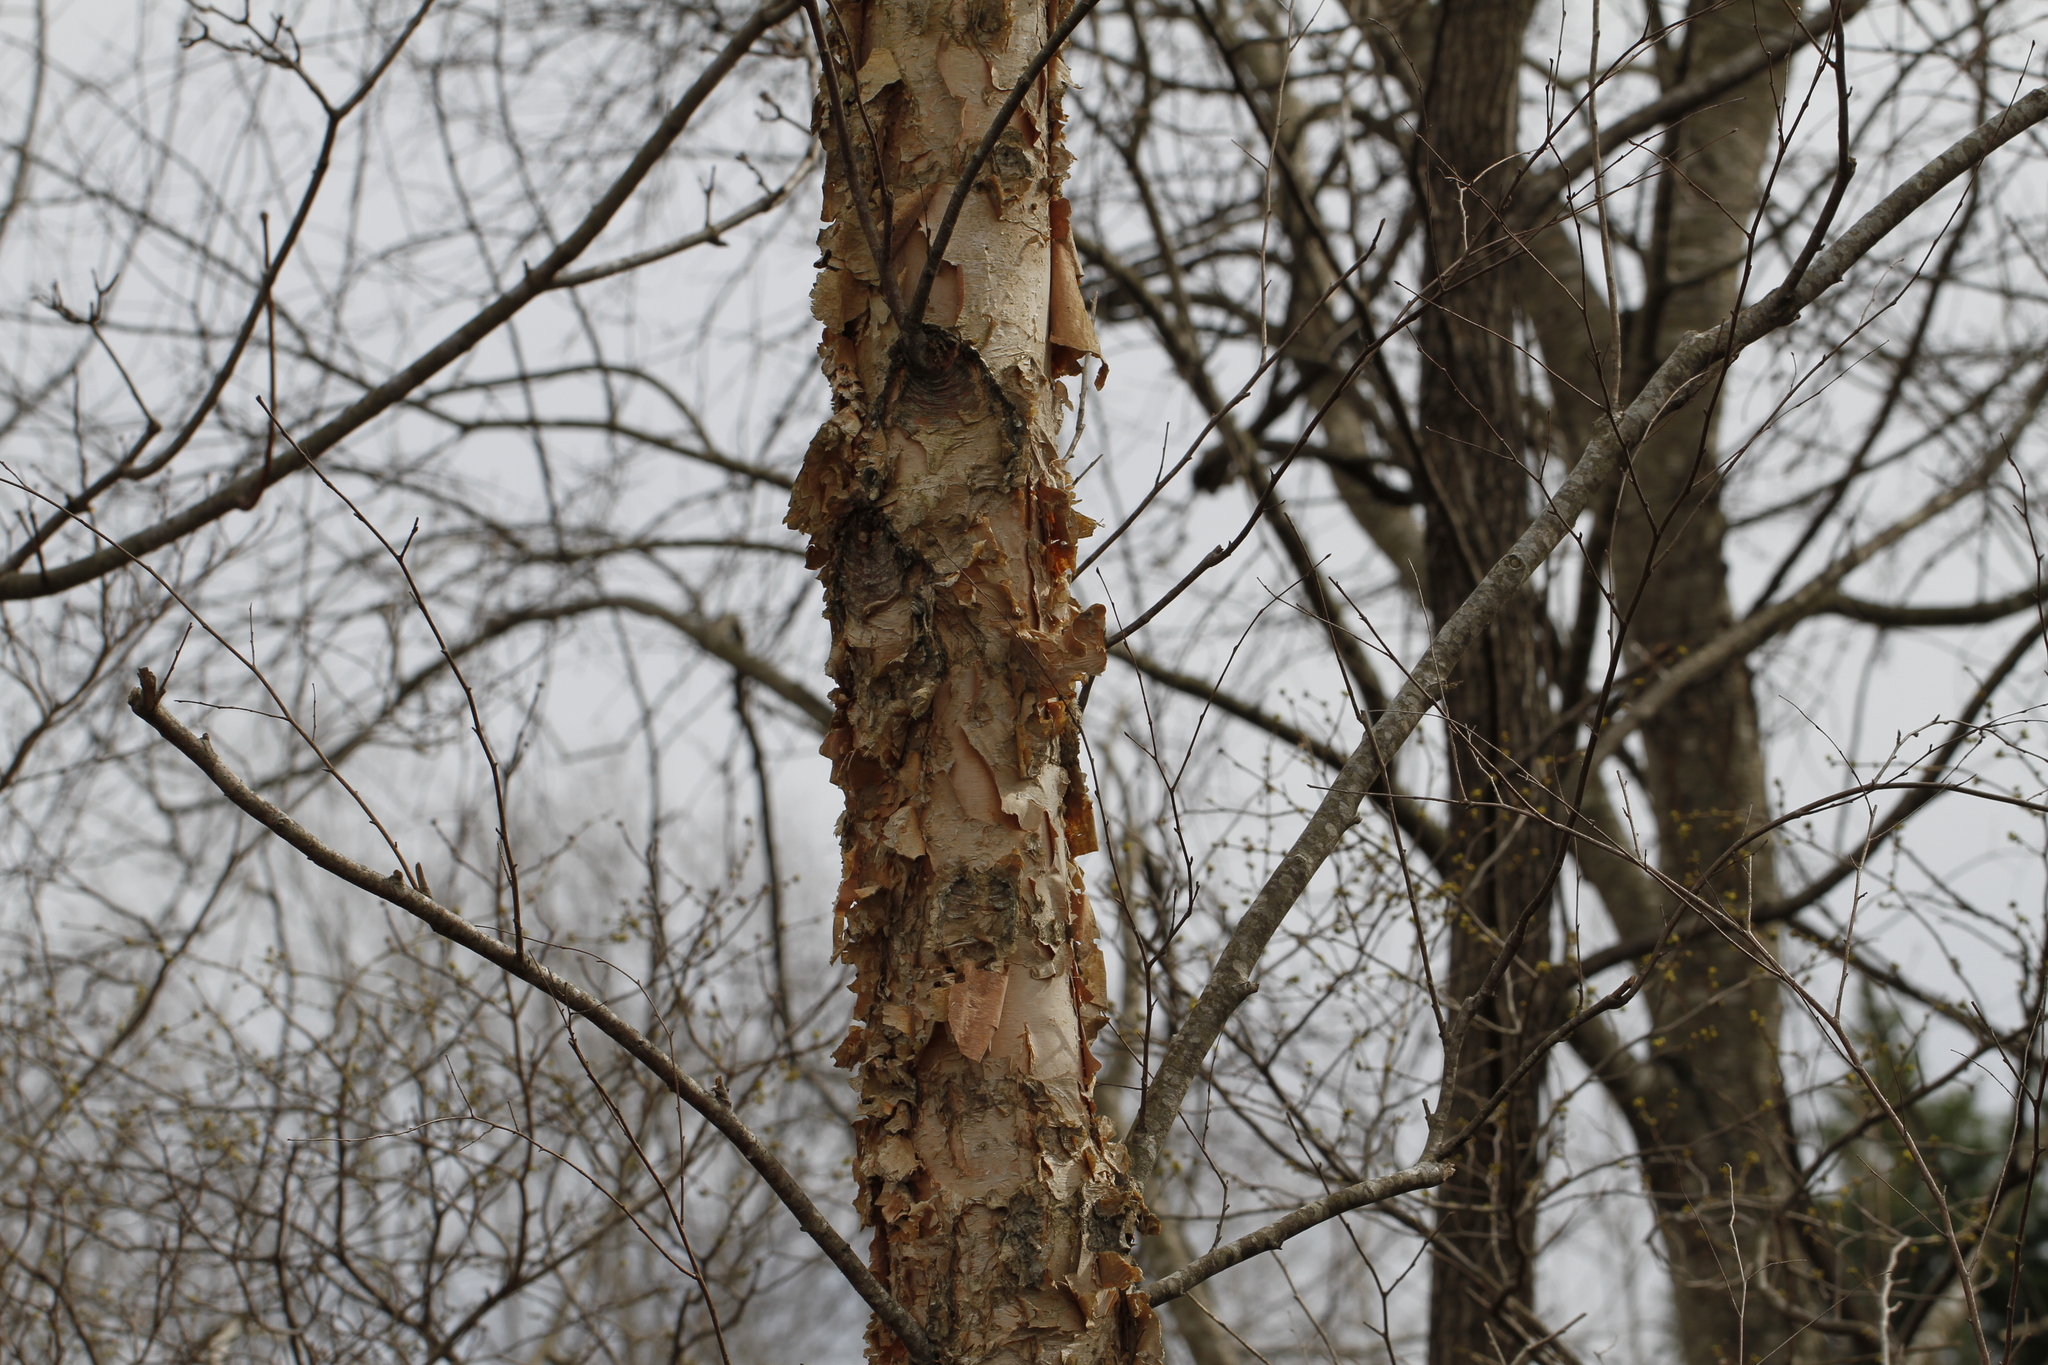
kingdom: Plantae
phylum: Tracheophyta
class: Magnoliopsida
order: Fagales
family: Betulaceae
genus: Betula
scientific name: Betula nigra
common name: Black birch
